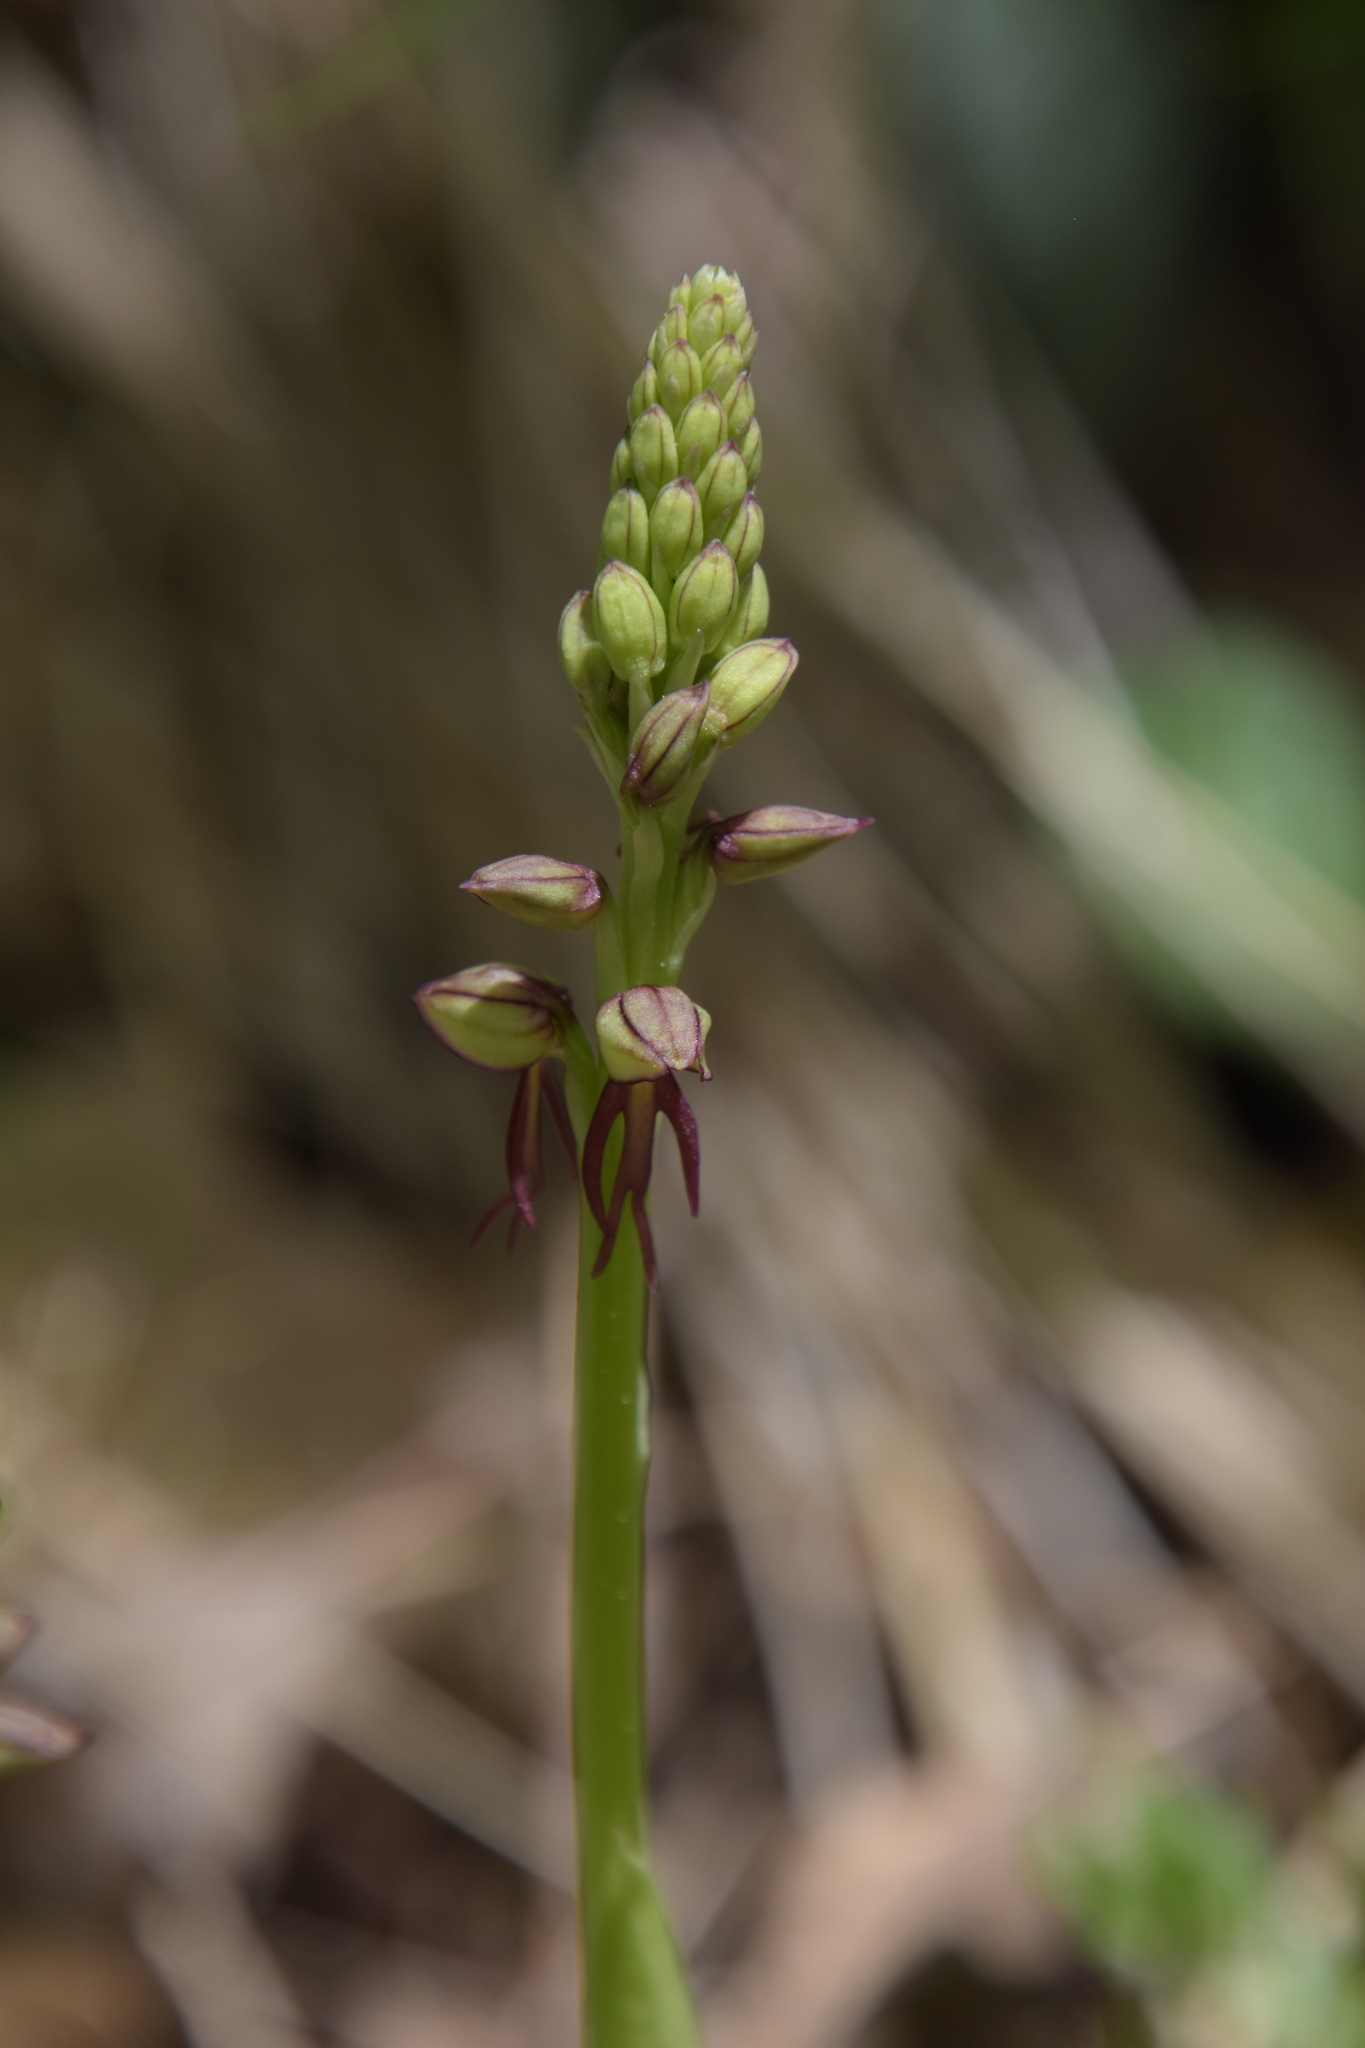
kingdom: Plantae
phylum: Tracheophyta
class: Liliopsida
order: Asparagales
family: Orchidaceae
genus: Orchis
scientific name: Orchis anthropophora
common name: Man orchid
